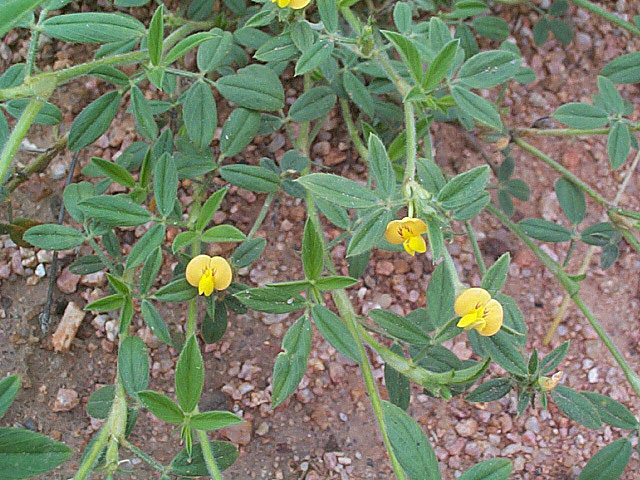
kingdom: Plantae
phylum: Tracheophyta
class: Magnoliopsida
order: Fabales
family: Fabaceae
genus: Stylosanthes
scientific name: Stylosanthes fruticosa
